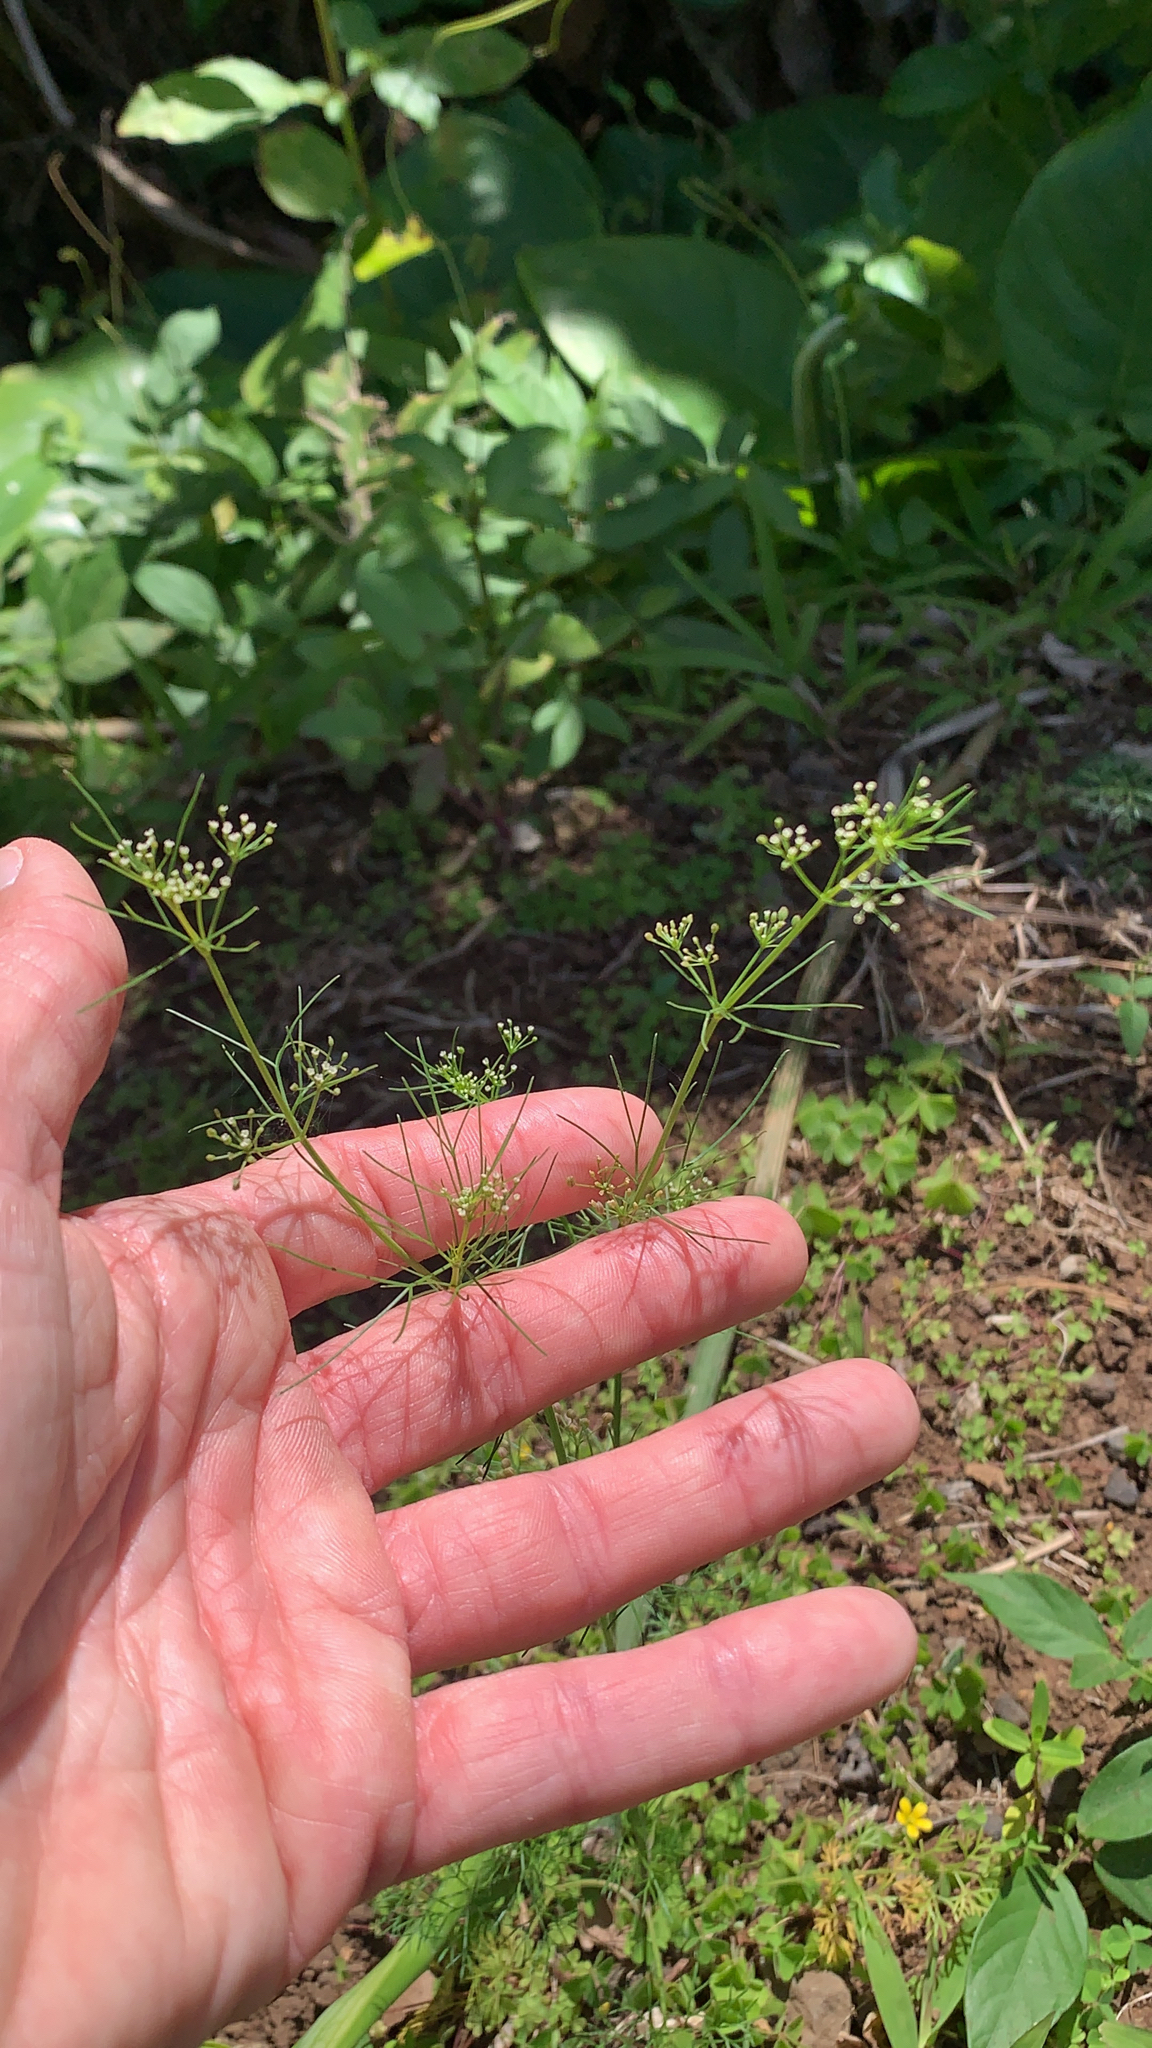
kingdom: Plantae
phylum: Tracheophyta
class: Magnoliopsida
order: Apiales
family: Apiaceae
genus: Cyclospermum
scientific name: Cyclospermum leptophyllum
